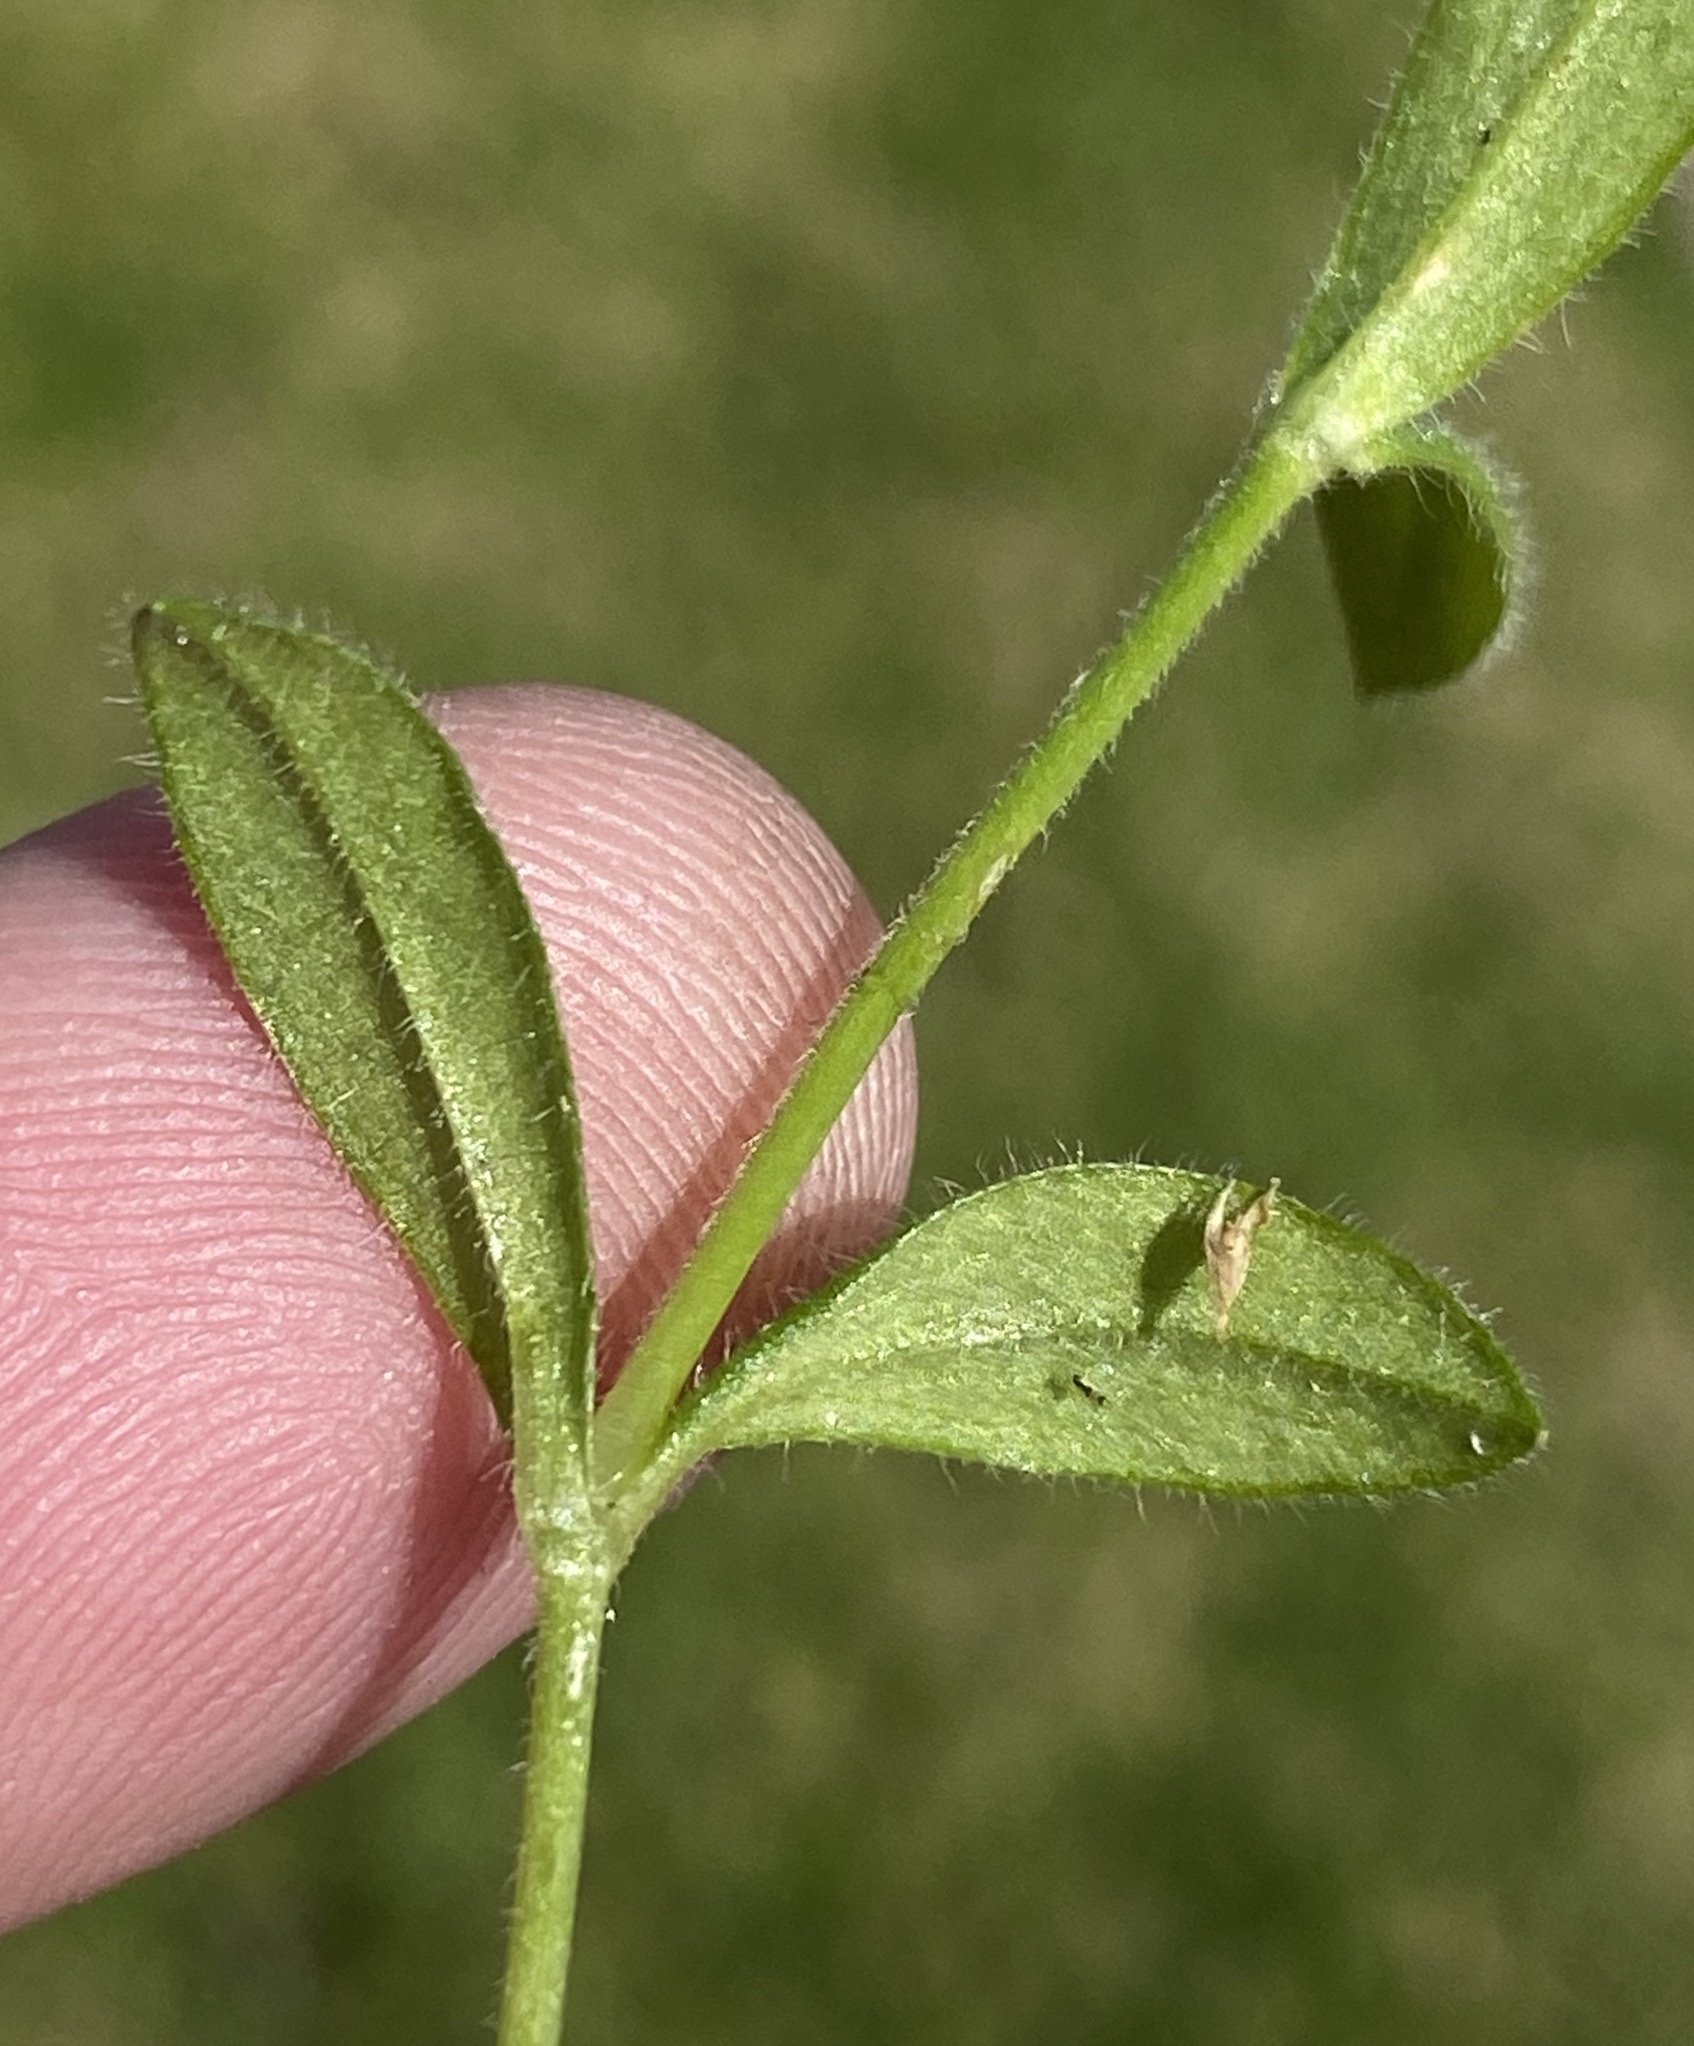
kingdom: Plantae
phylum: Tracheophyta
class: Magnoliopsida
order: Caryophyllales
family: Caryophyllaceae
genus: Cerastium
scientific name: Cerastium glomeratum
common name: Sticky chickweed
